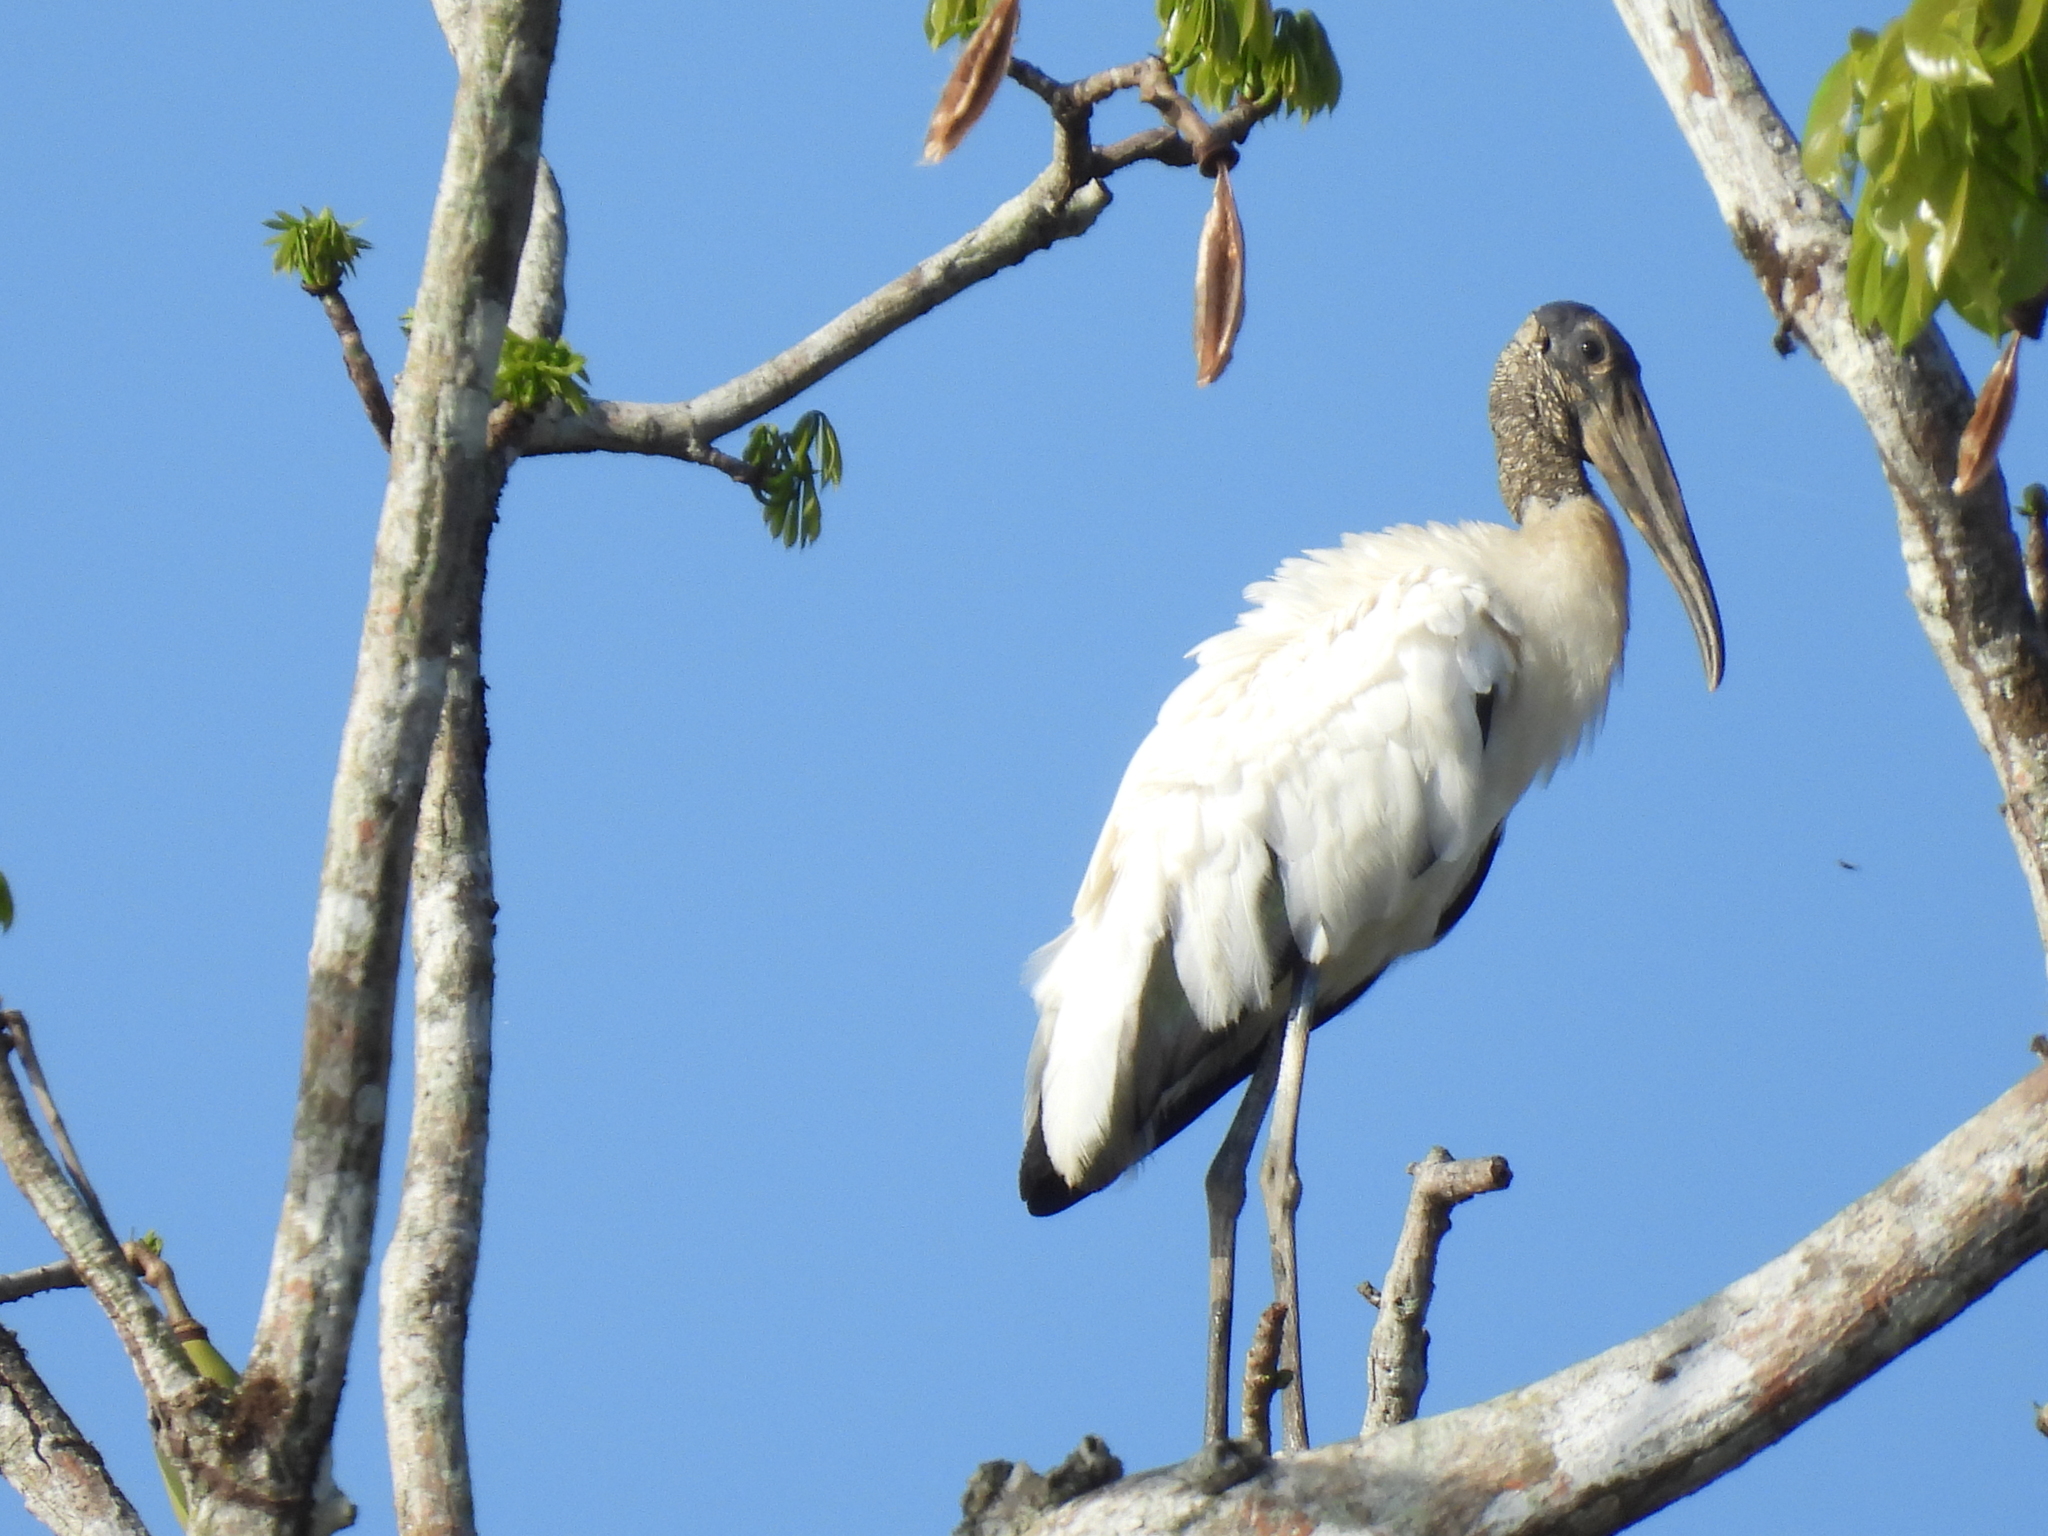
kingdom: Animalia
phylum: Chordata
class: Aves
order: Ciconiiformes
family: Ciconiidae
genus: Mycteria
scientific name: Mycteria americana
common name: Wood stork
